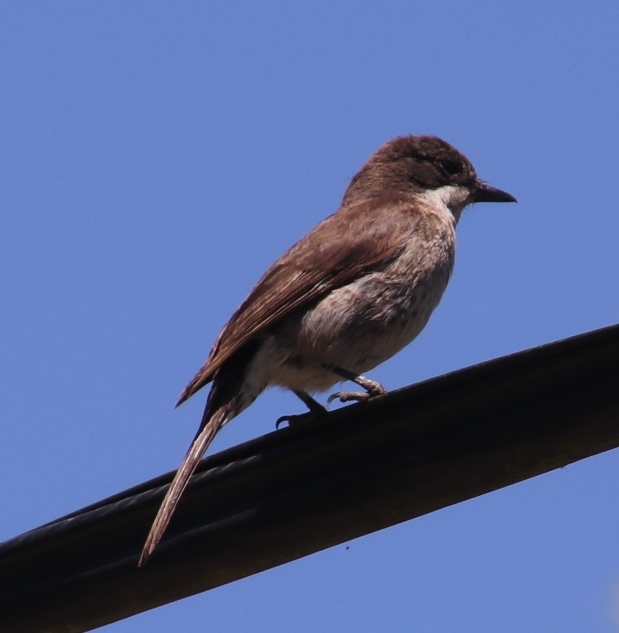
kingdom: Animalia
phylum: Chordata
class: Aves
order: Passeriformes
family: Muscicapidae
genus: Sigelus
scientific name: Sigelus silens
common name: Fiscal flycatcher
